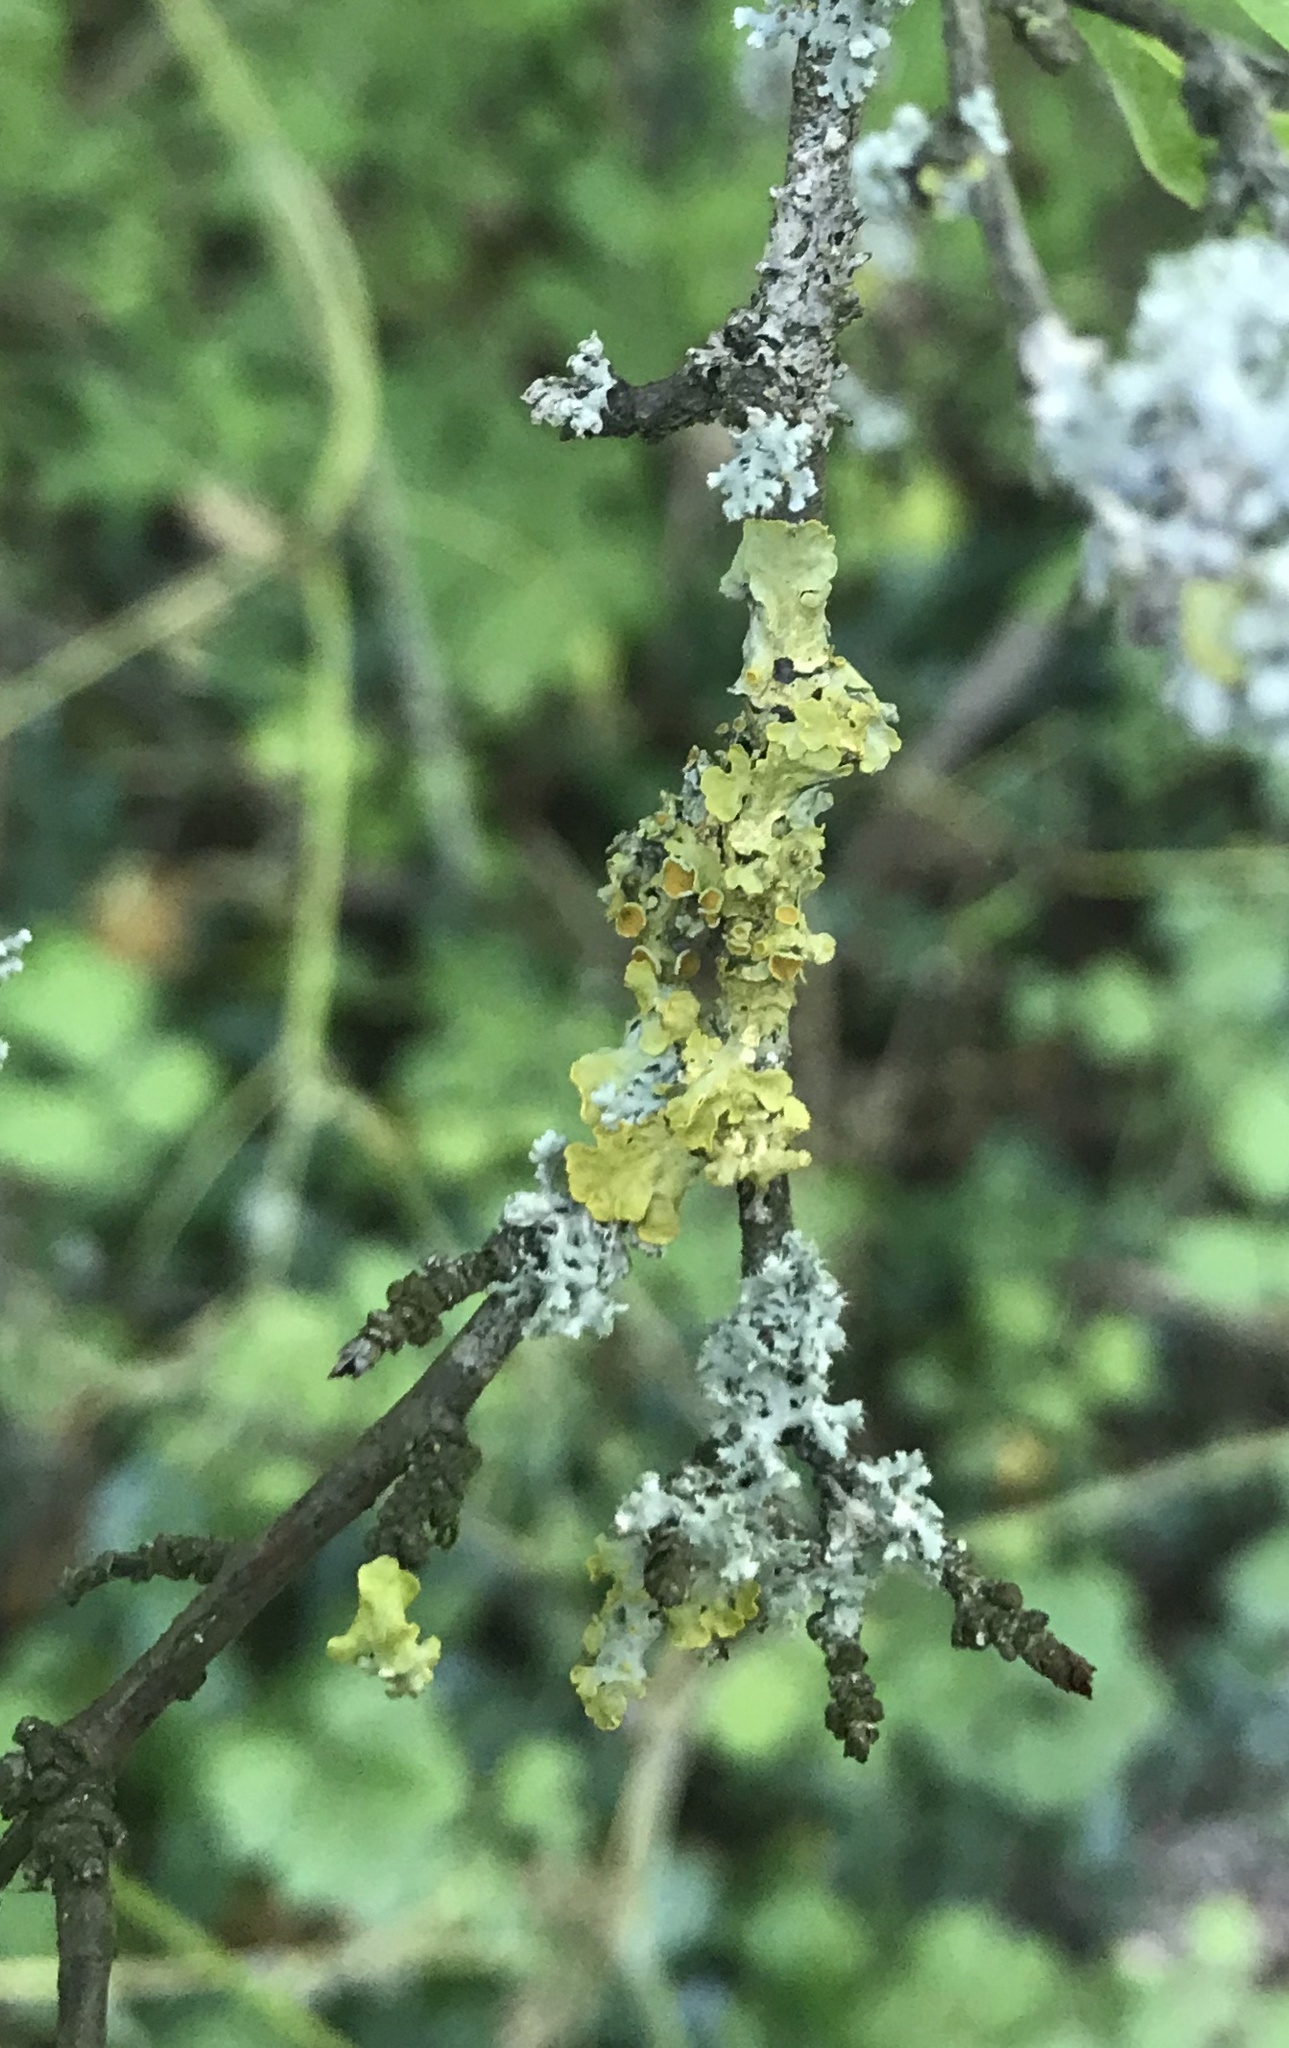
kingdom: Fungi
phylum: Ascomycota
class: Lecanoromycetes
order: Teloschistales
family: Teloschistaceae
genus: Xanthoria
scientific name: Xanthoria parietina
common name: Common orange lichen
